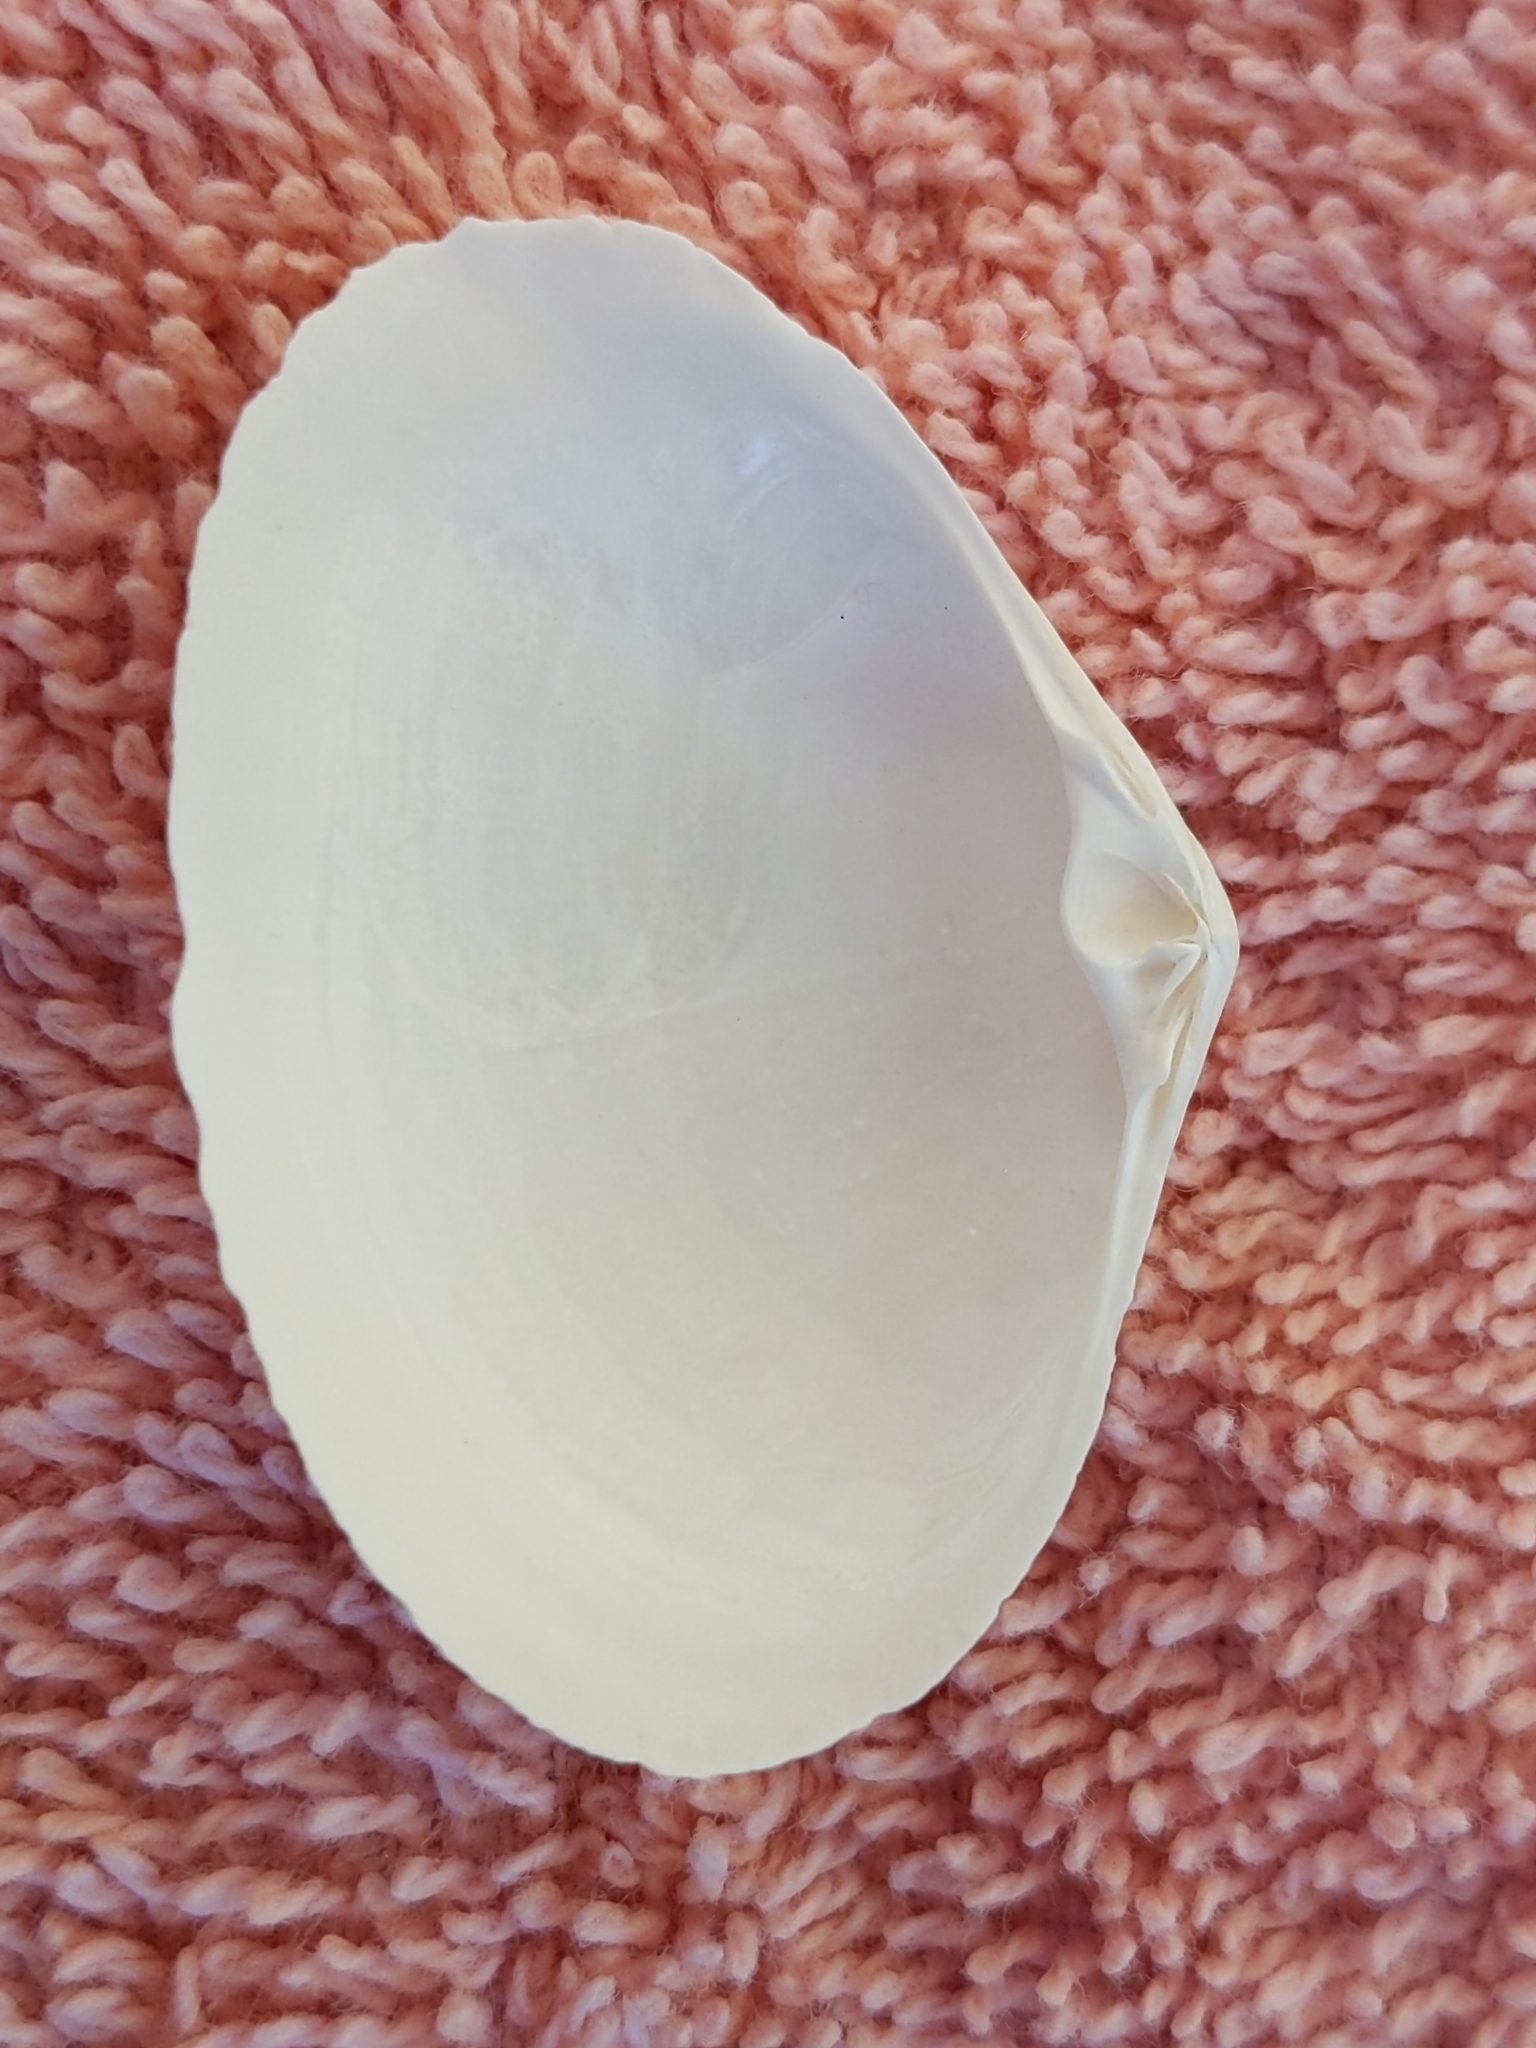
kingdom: Animalia
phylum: Mollusca
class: Bivalvia
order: Venerida
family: Mactridae
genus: Spisula
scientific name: Spisula solidissima
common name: Atlantic surf clam
